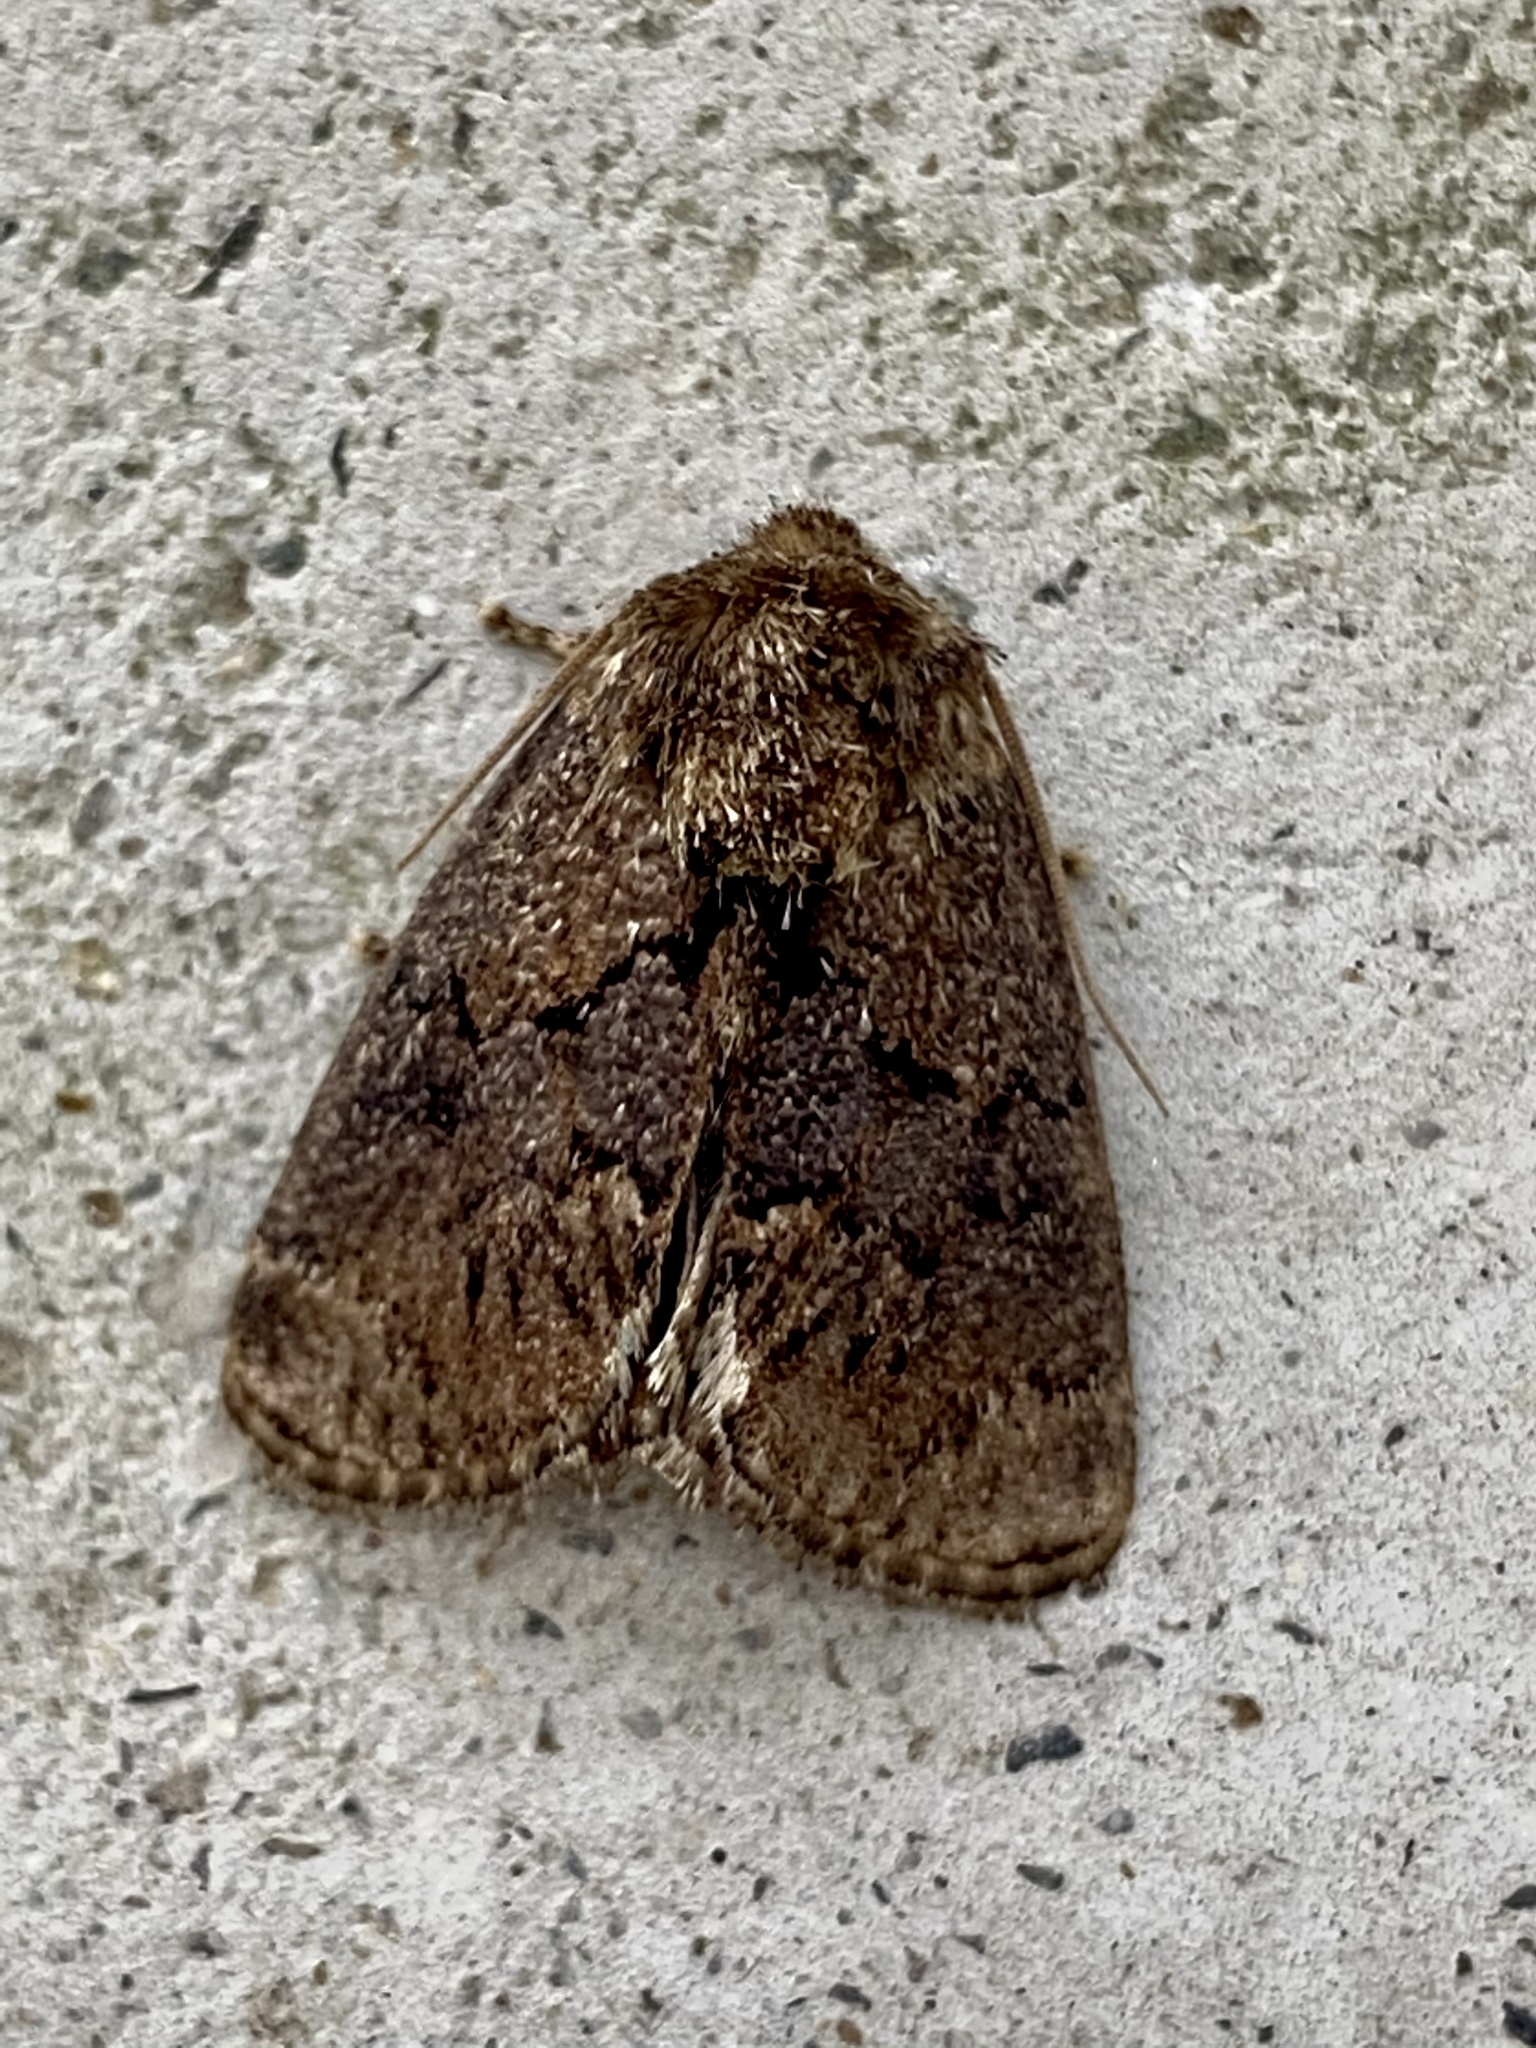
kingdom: Animalia
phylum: Arthropoda
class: Insecta
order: Lepidoptera
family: Limacodidae
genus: Hampsonella
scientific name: Hampsonella takemurai
